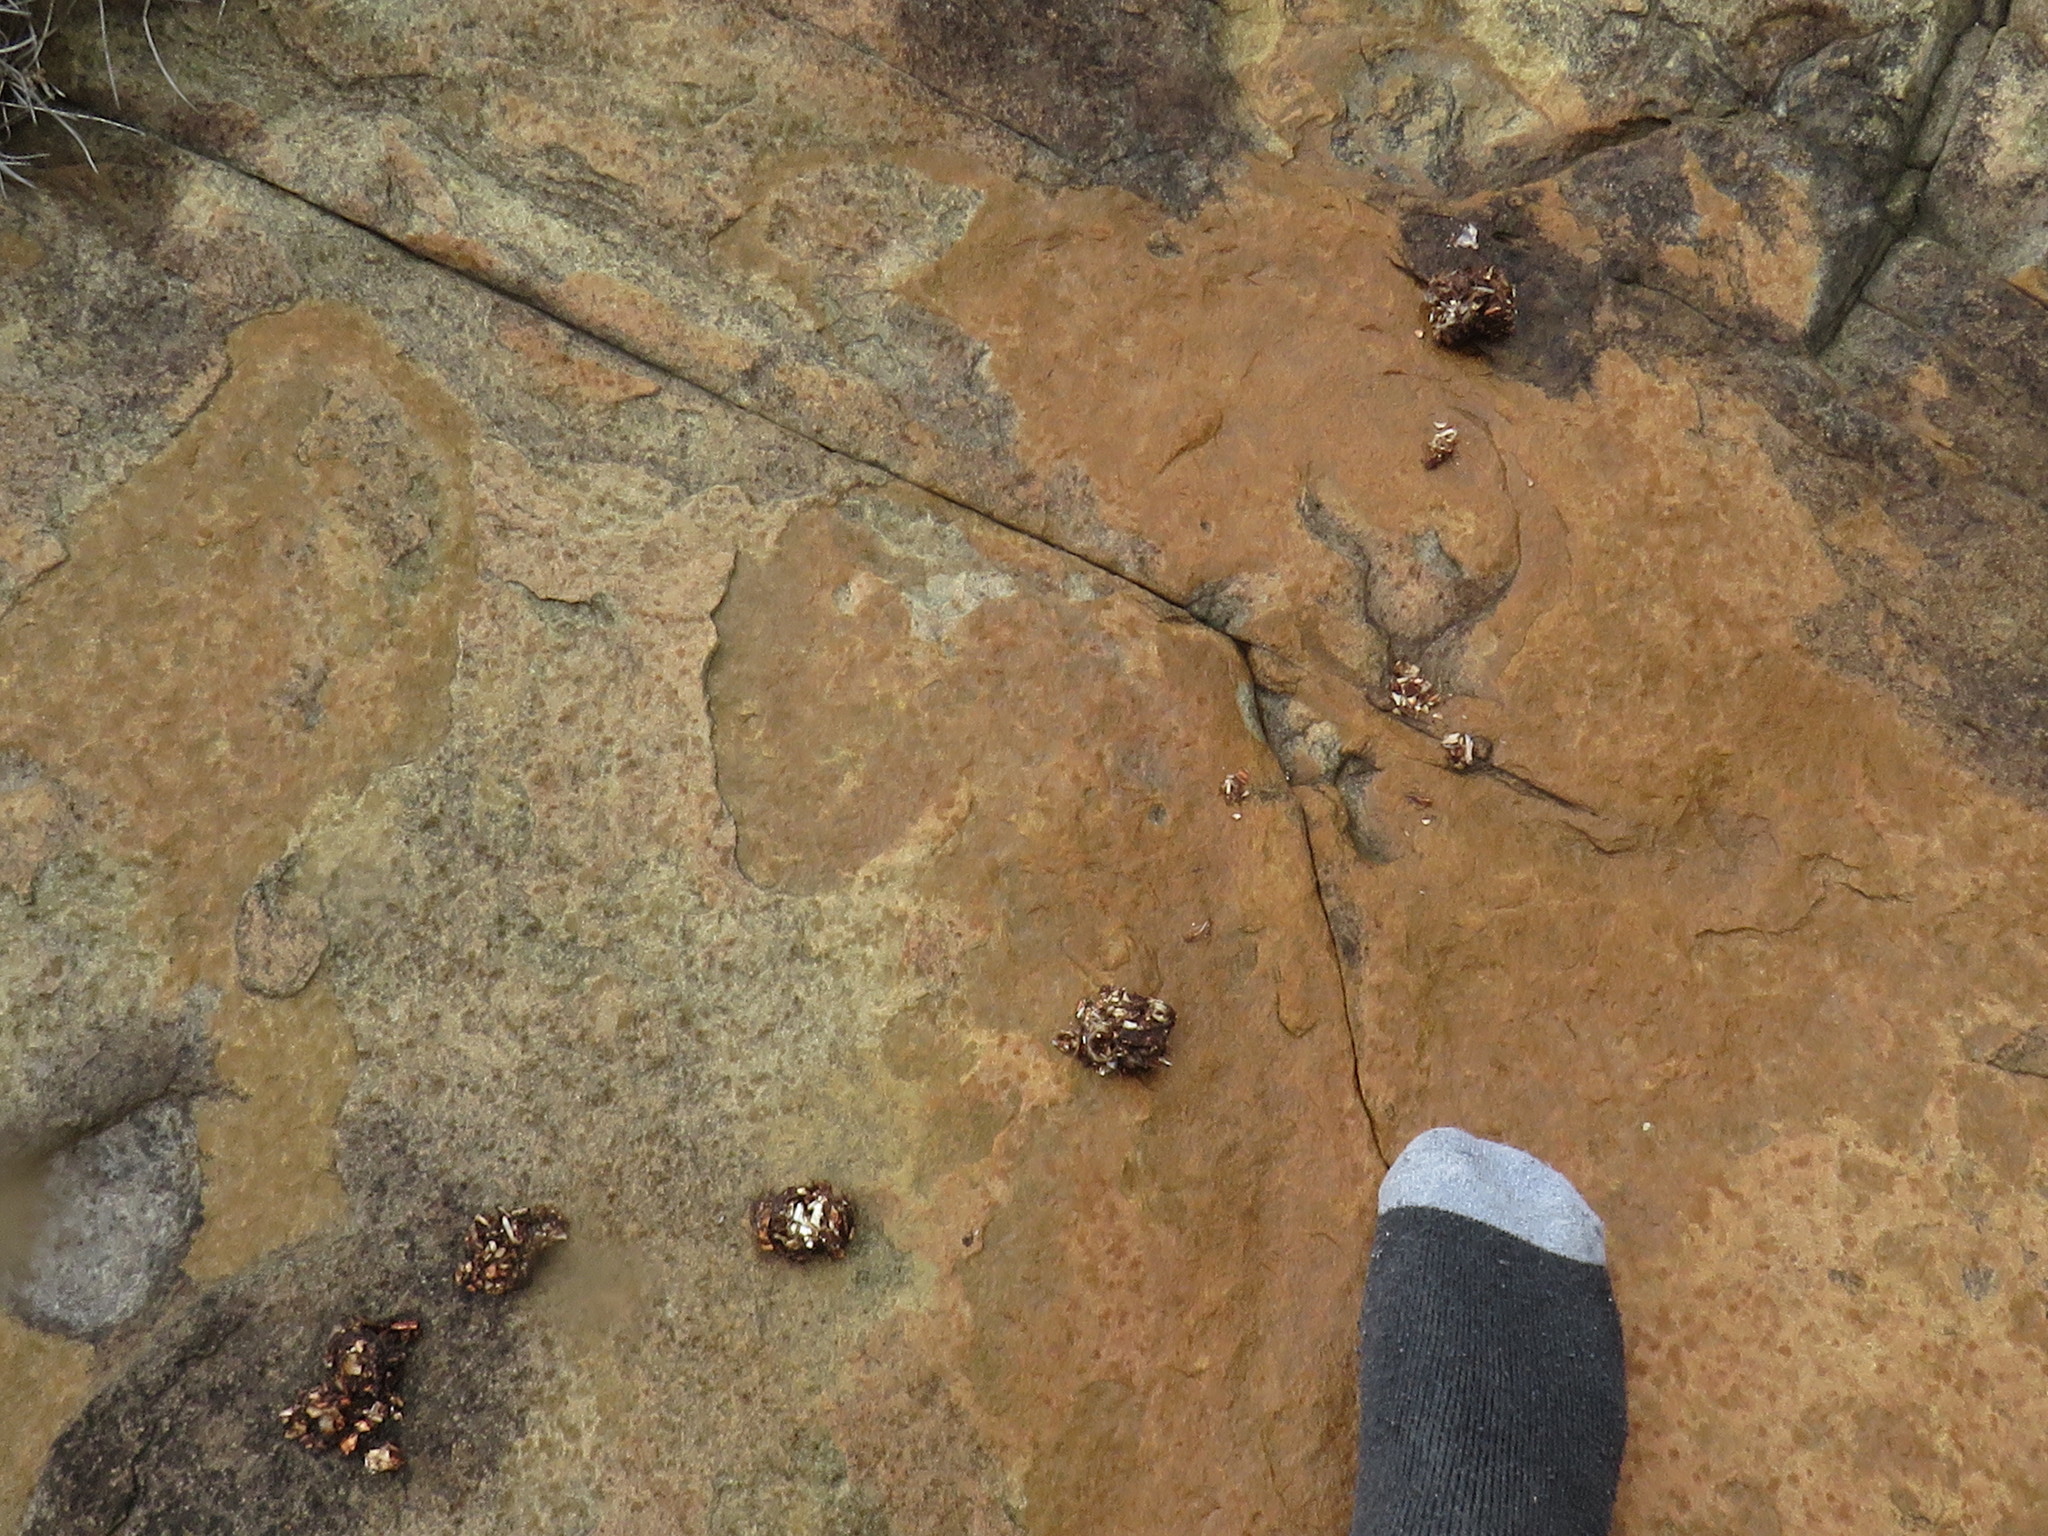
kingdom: Animalia
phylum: Chordata
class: Mammalia
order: Carnivora
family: Mustelidae
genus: Aonyx
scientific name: Aonyx capensis
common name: African clawless otter
